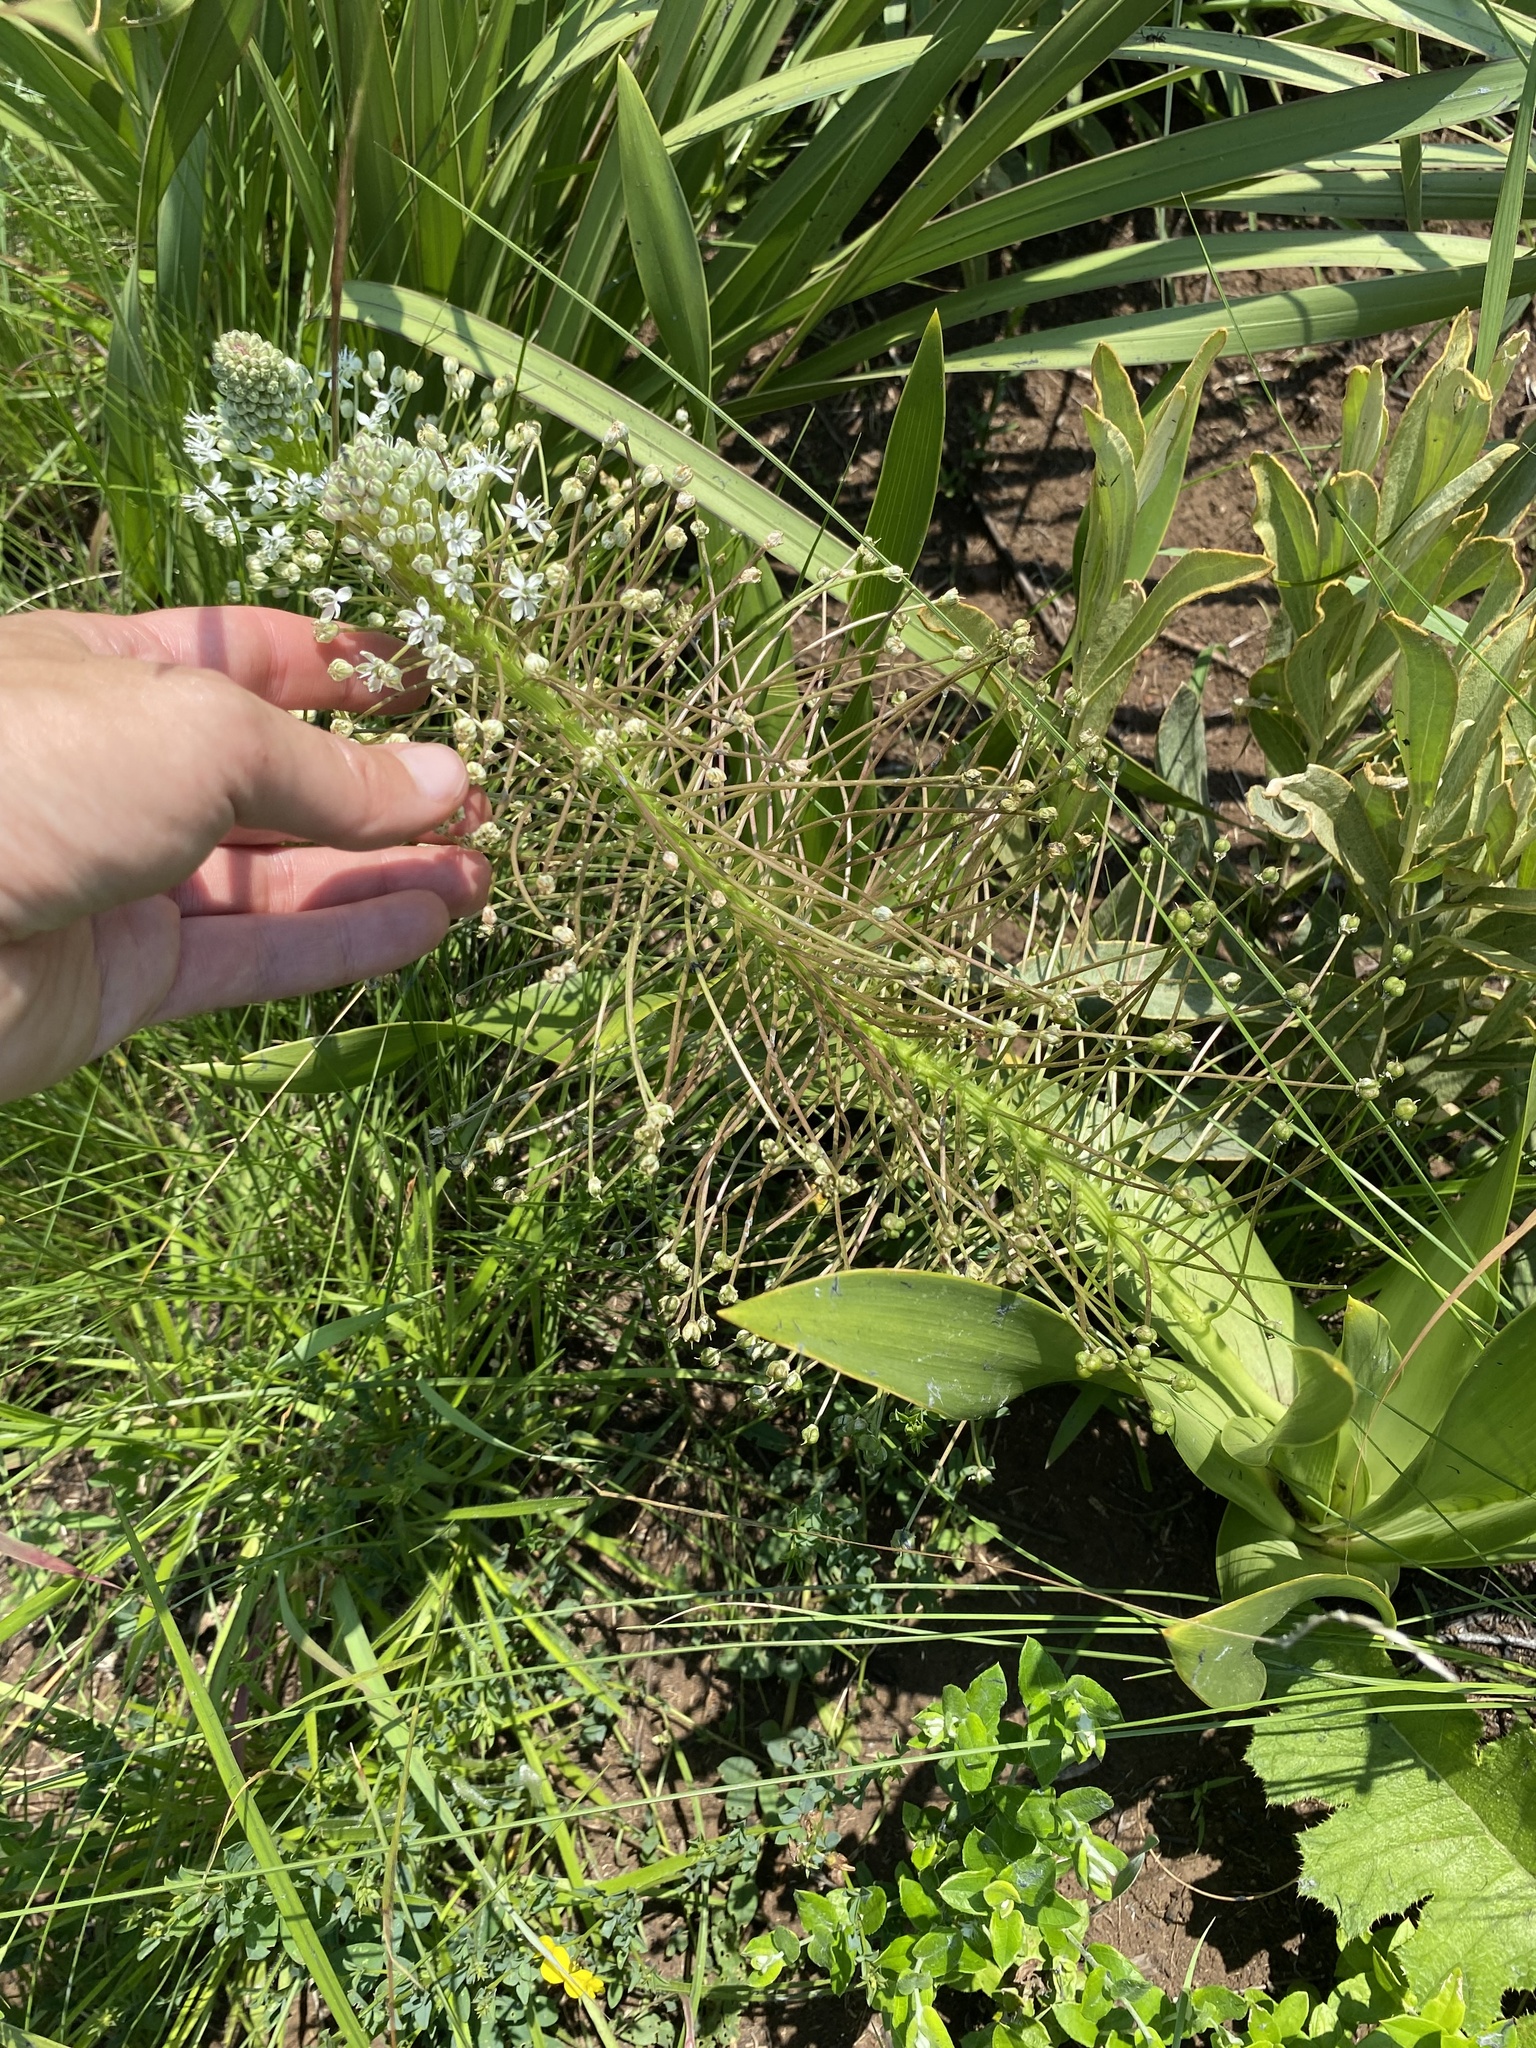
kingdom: Plantae
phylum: Tracheophyta
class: Liliopsida
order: Asparagales
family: Asparagaceae
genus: Schizocarphus
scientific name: Schizocarphus nervosus
